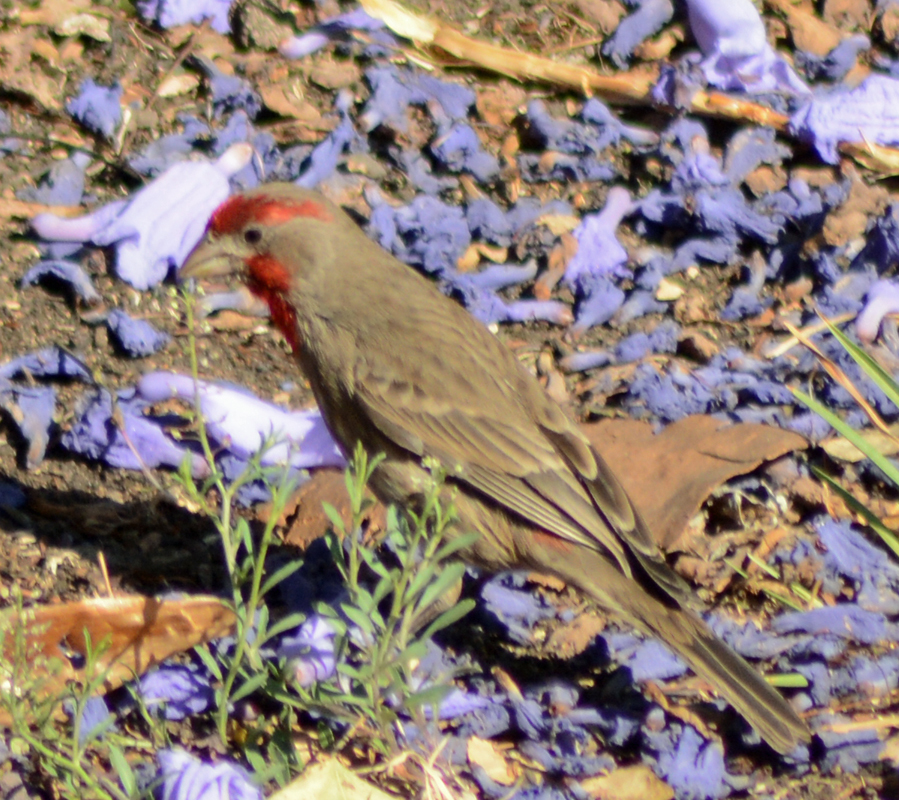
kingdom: Animalia
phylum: Chordata
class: Aves
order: Passeriformes
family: Fringillidae
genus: Haemorhous
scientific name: Haemorhous mexicanus
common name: House finch
